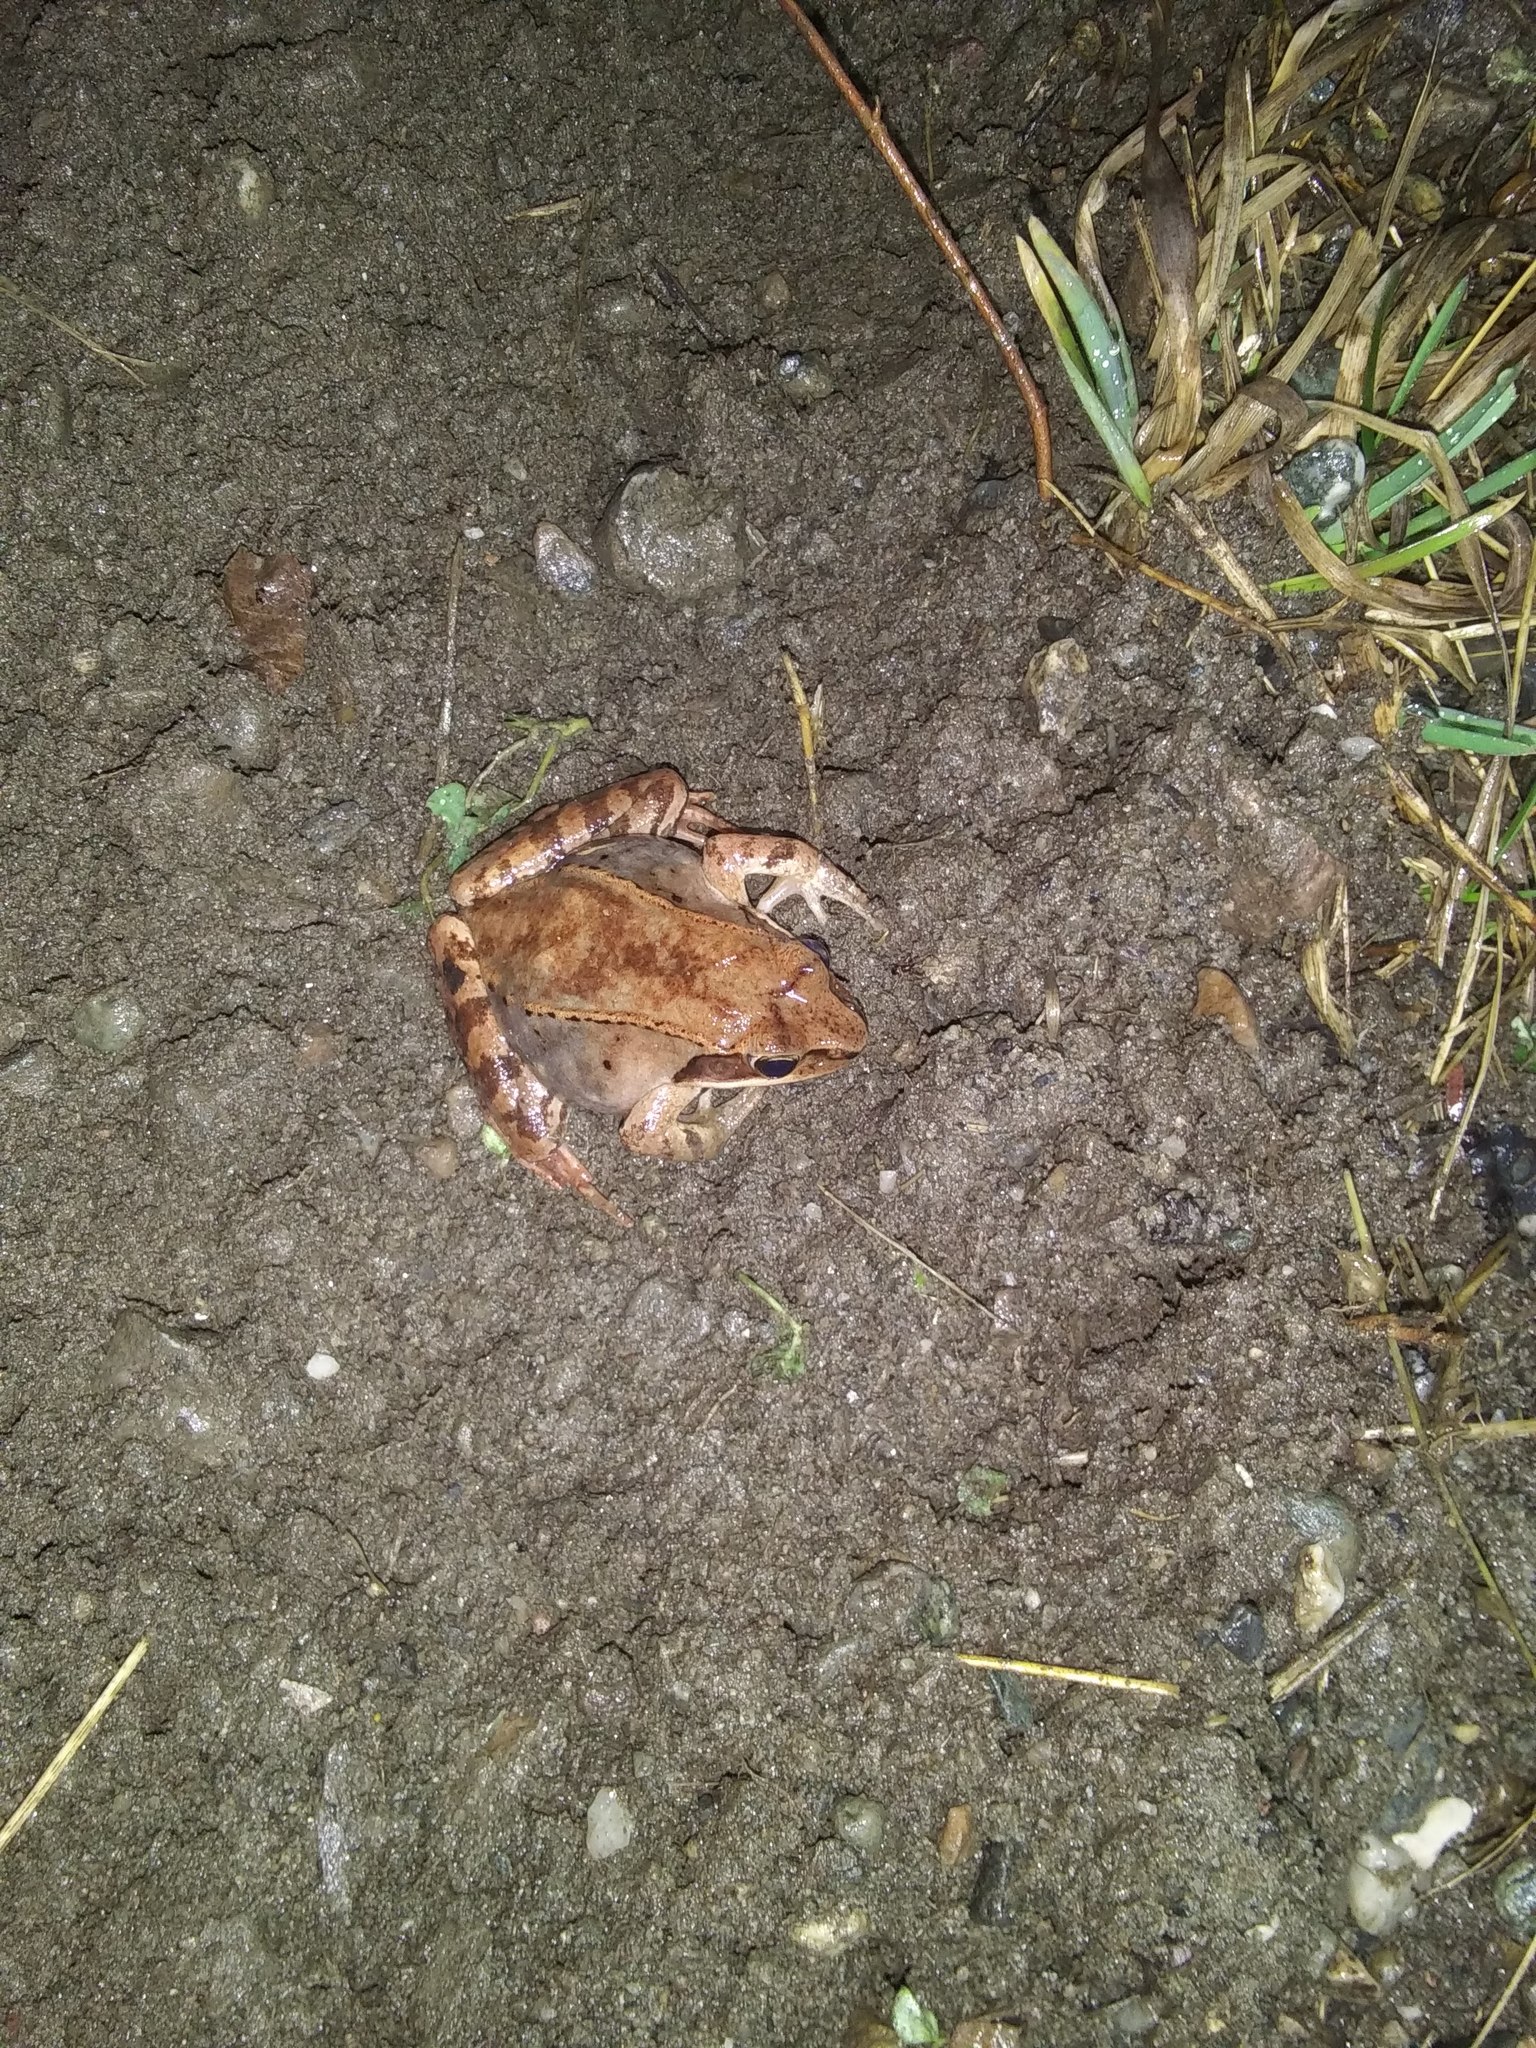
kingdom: Animalia
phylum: Chordata
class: Amphibia
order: Anura
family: Ranidae
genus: Lithobates
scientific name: Lithobates sylvaticus
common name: Wood frog
